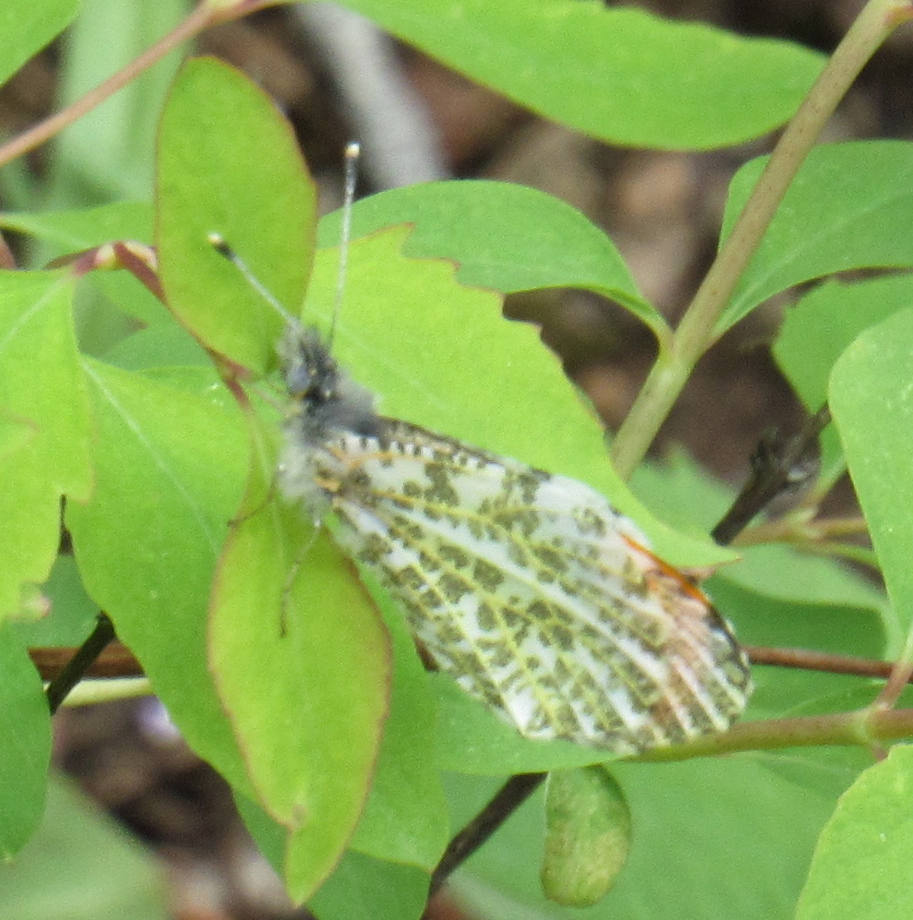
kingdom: Animalia
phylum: Arthropoda
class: Insecta
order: Lepidoptera
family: Pieridae
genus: Anthocharis
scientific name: Anthocharis julia
